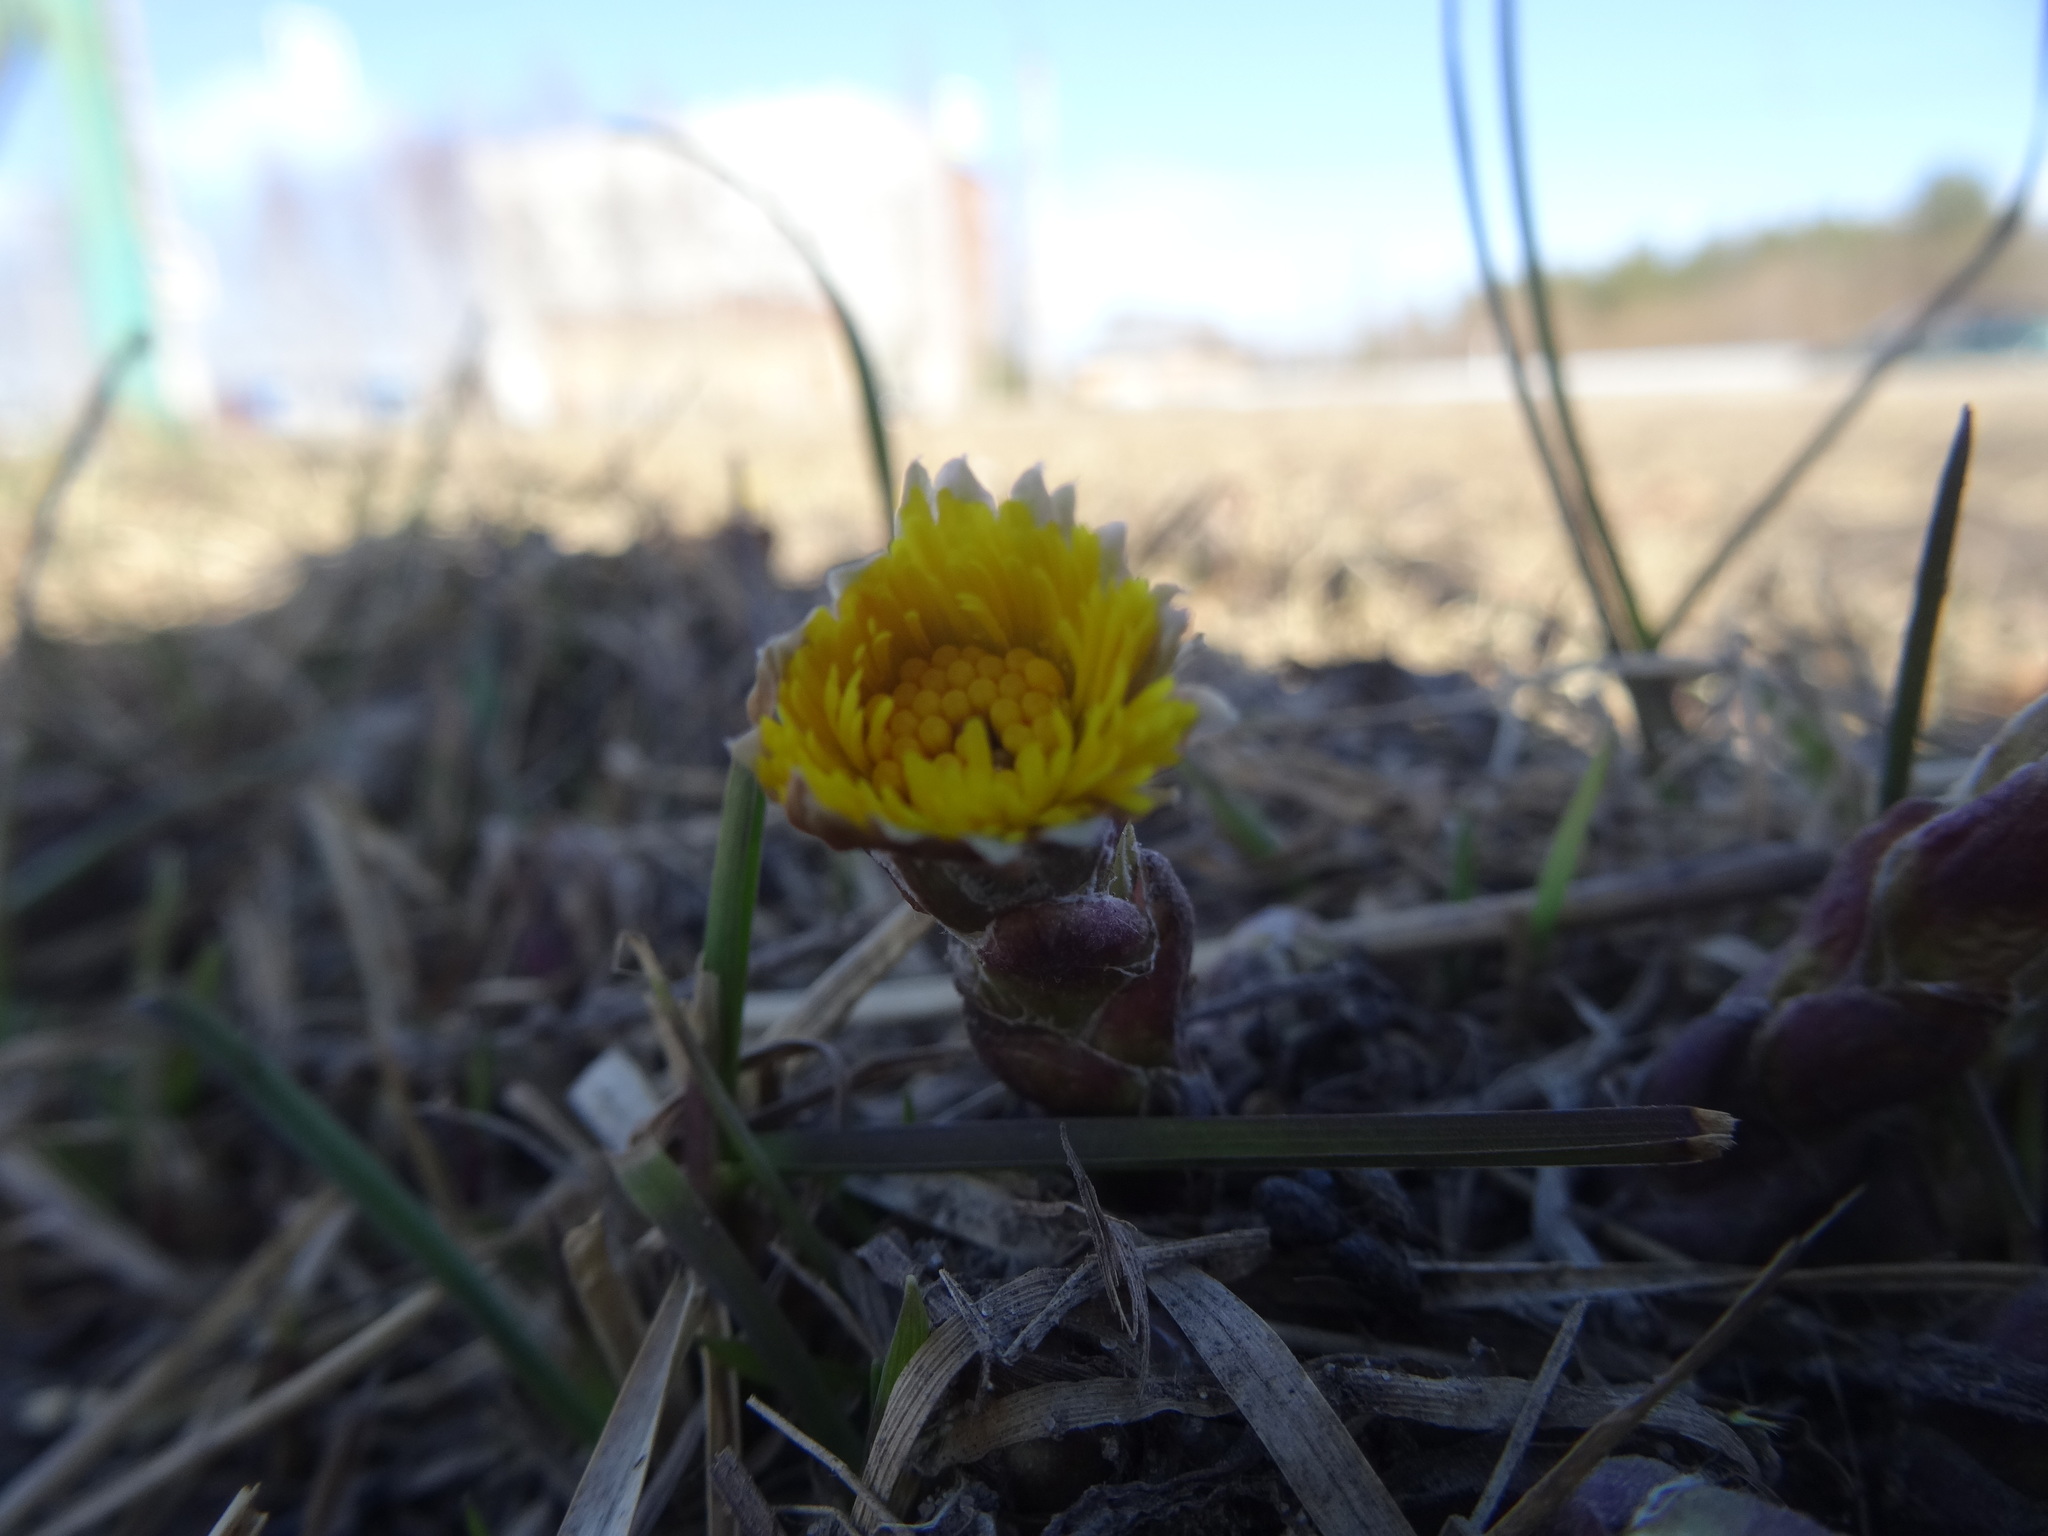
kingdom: Plantae
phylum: Tracheophyta
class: Magnoliopsida
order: Asterales
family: Asteraceae
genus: Tussilago
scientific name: Tussilago farfara
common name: Coltsfoot
